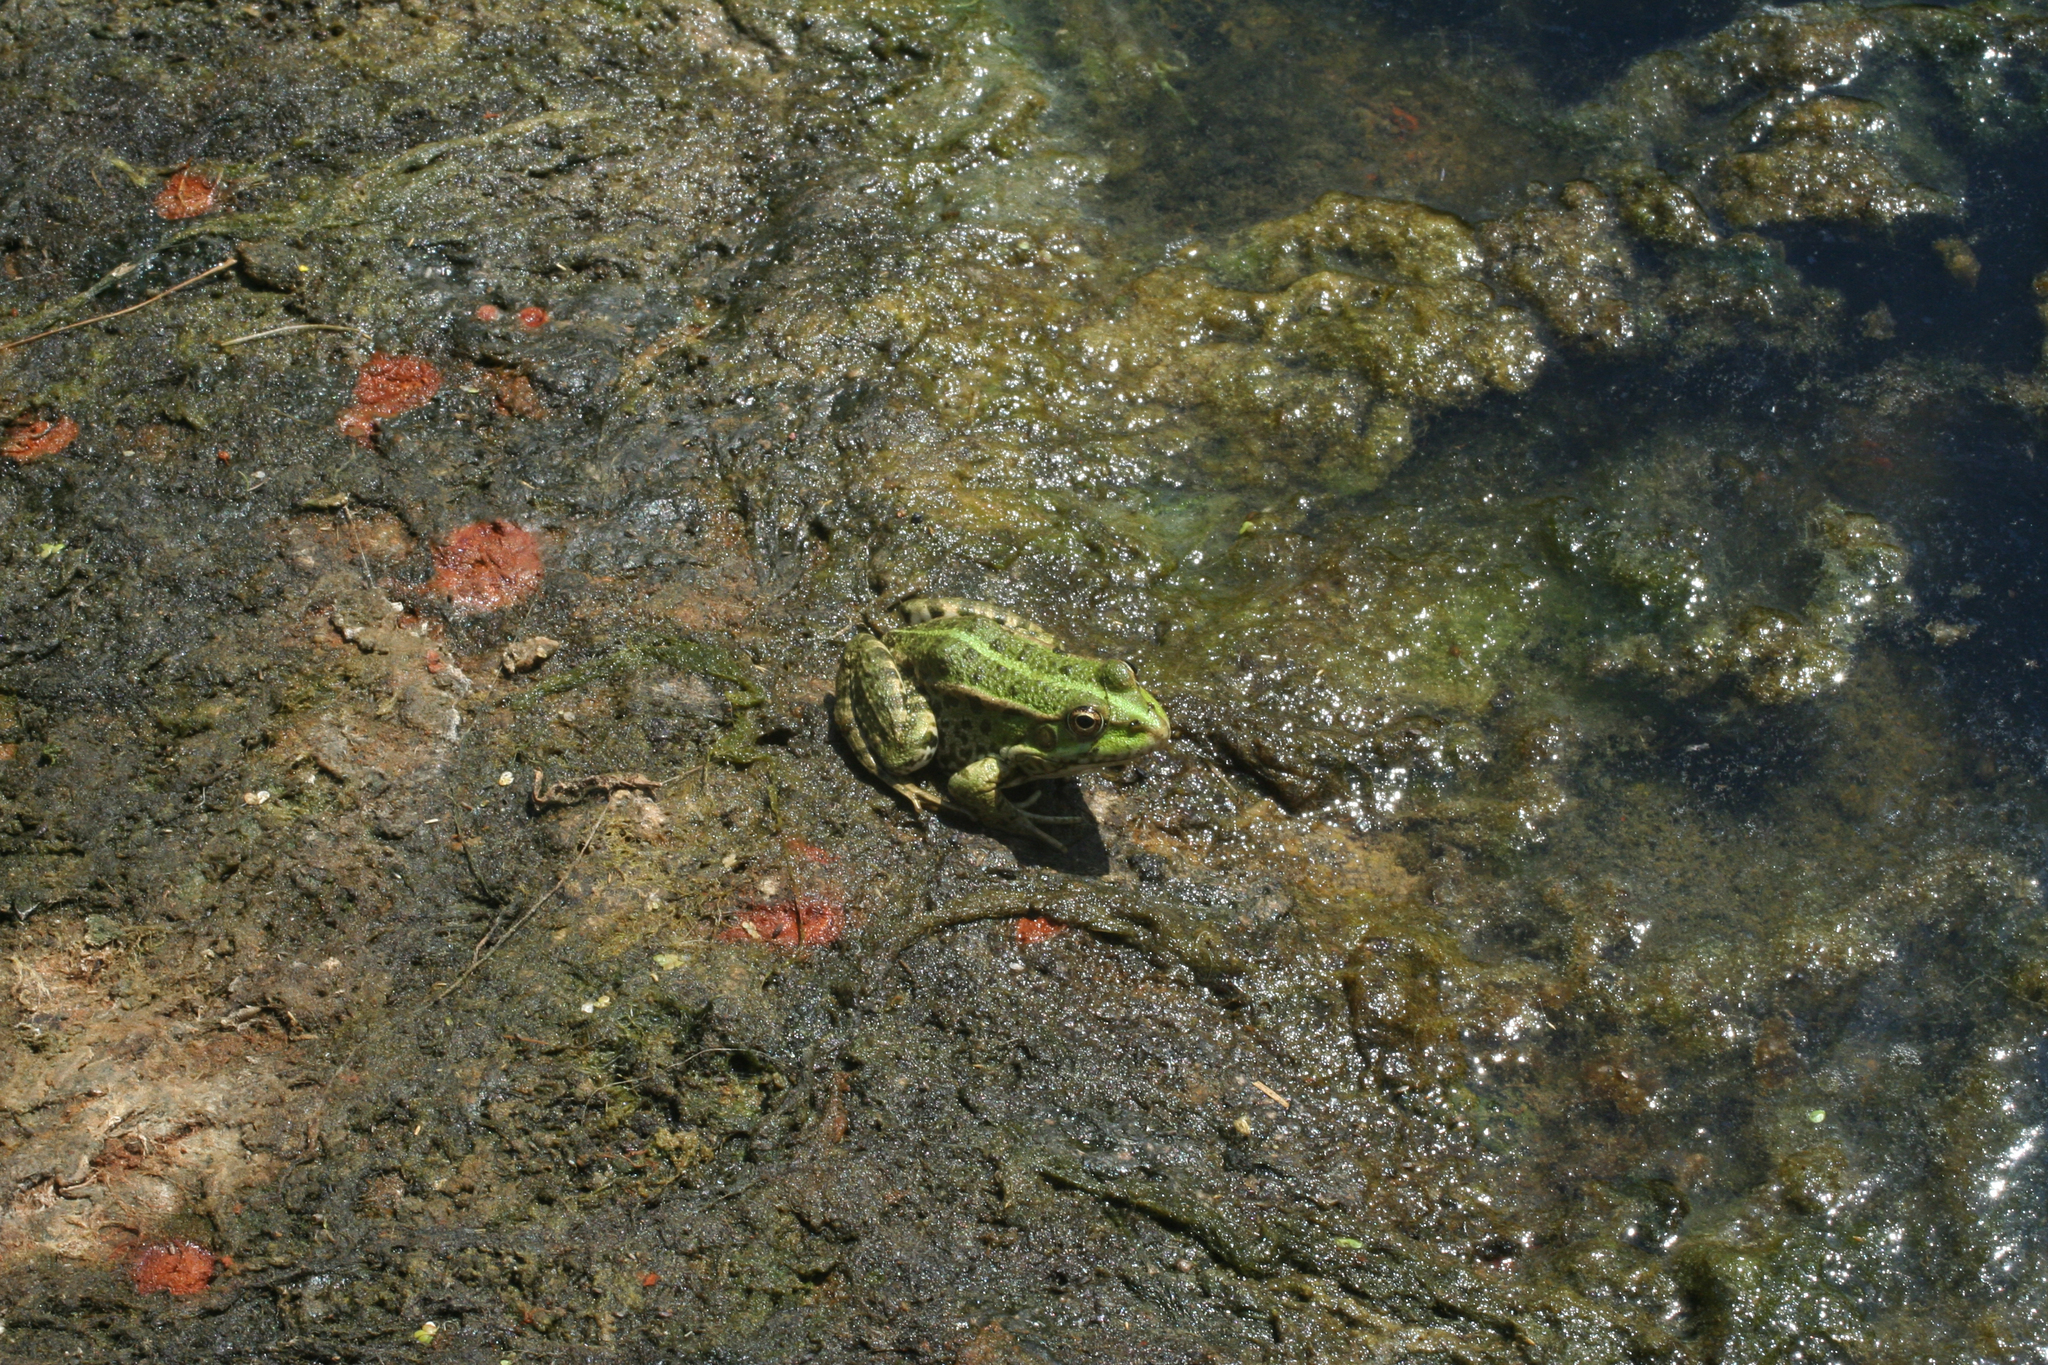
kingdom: Animalia
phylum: Chordata
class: Amphibia
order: Anura
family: Ranidae
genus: Pelophylax
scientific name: Pelophylax ridibundus
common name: Marsh frog
